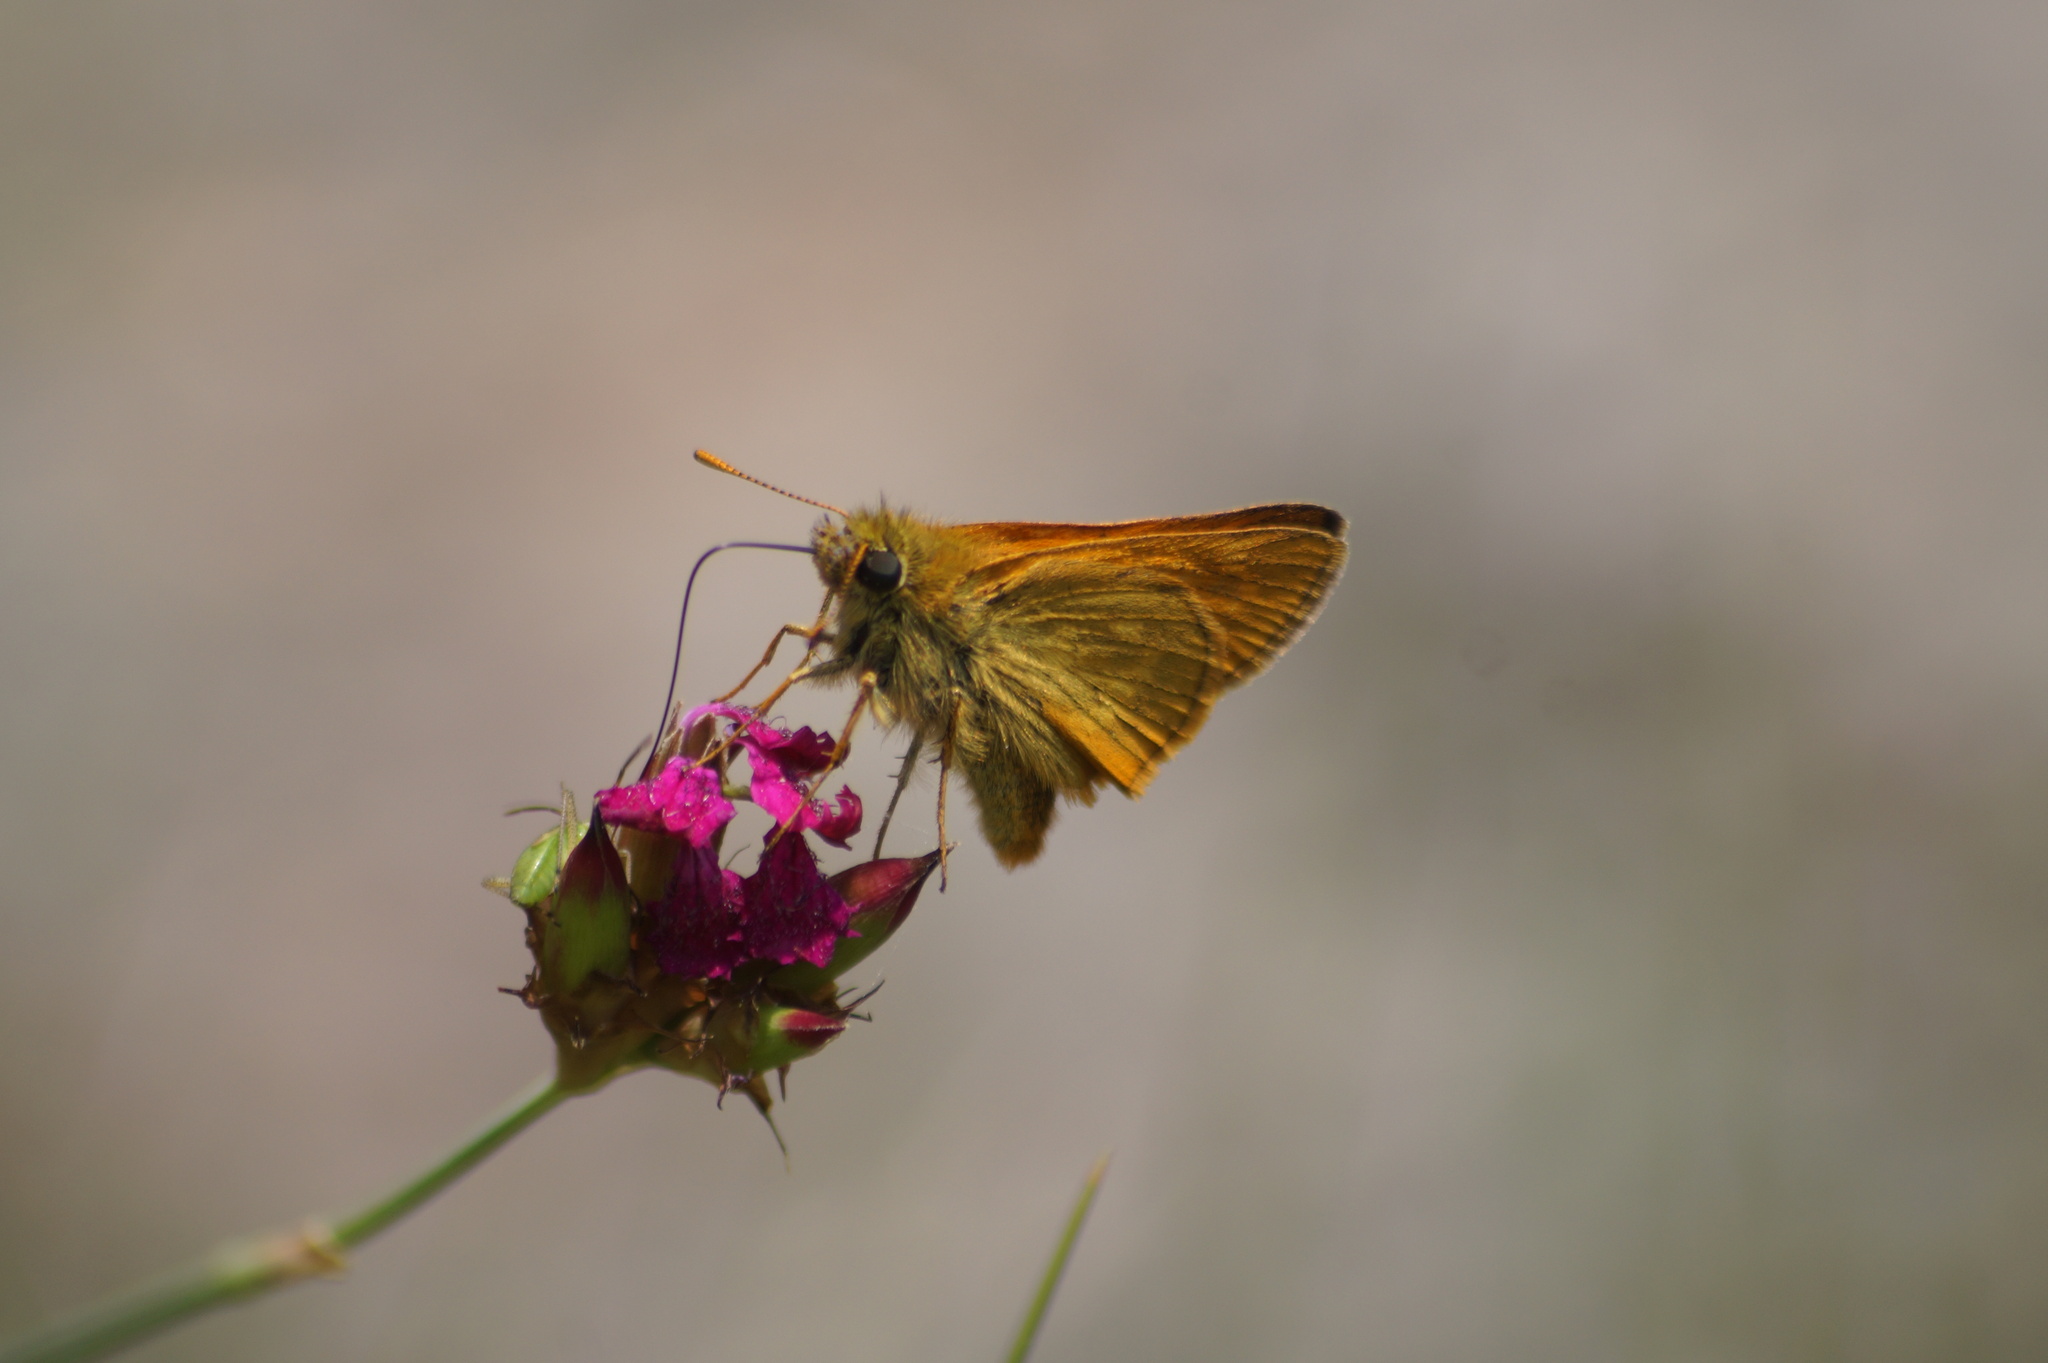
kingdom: Animalia
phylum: Arthropoda
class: Insecta
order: Lepidoptera
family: Hesperiidae
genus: Ochlodes
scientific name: Ochlodes venata
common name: Large skipper
